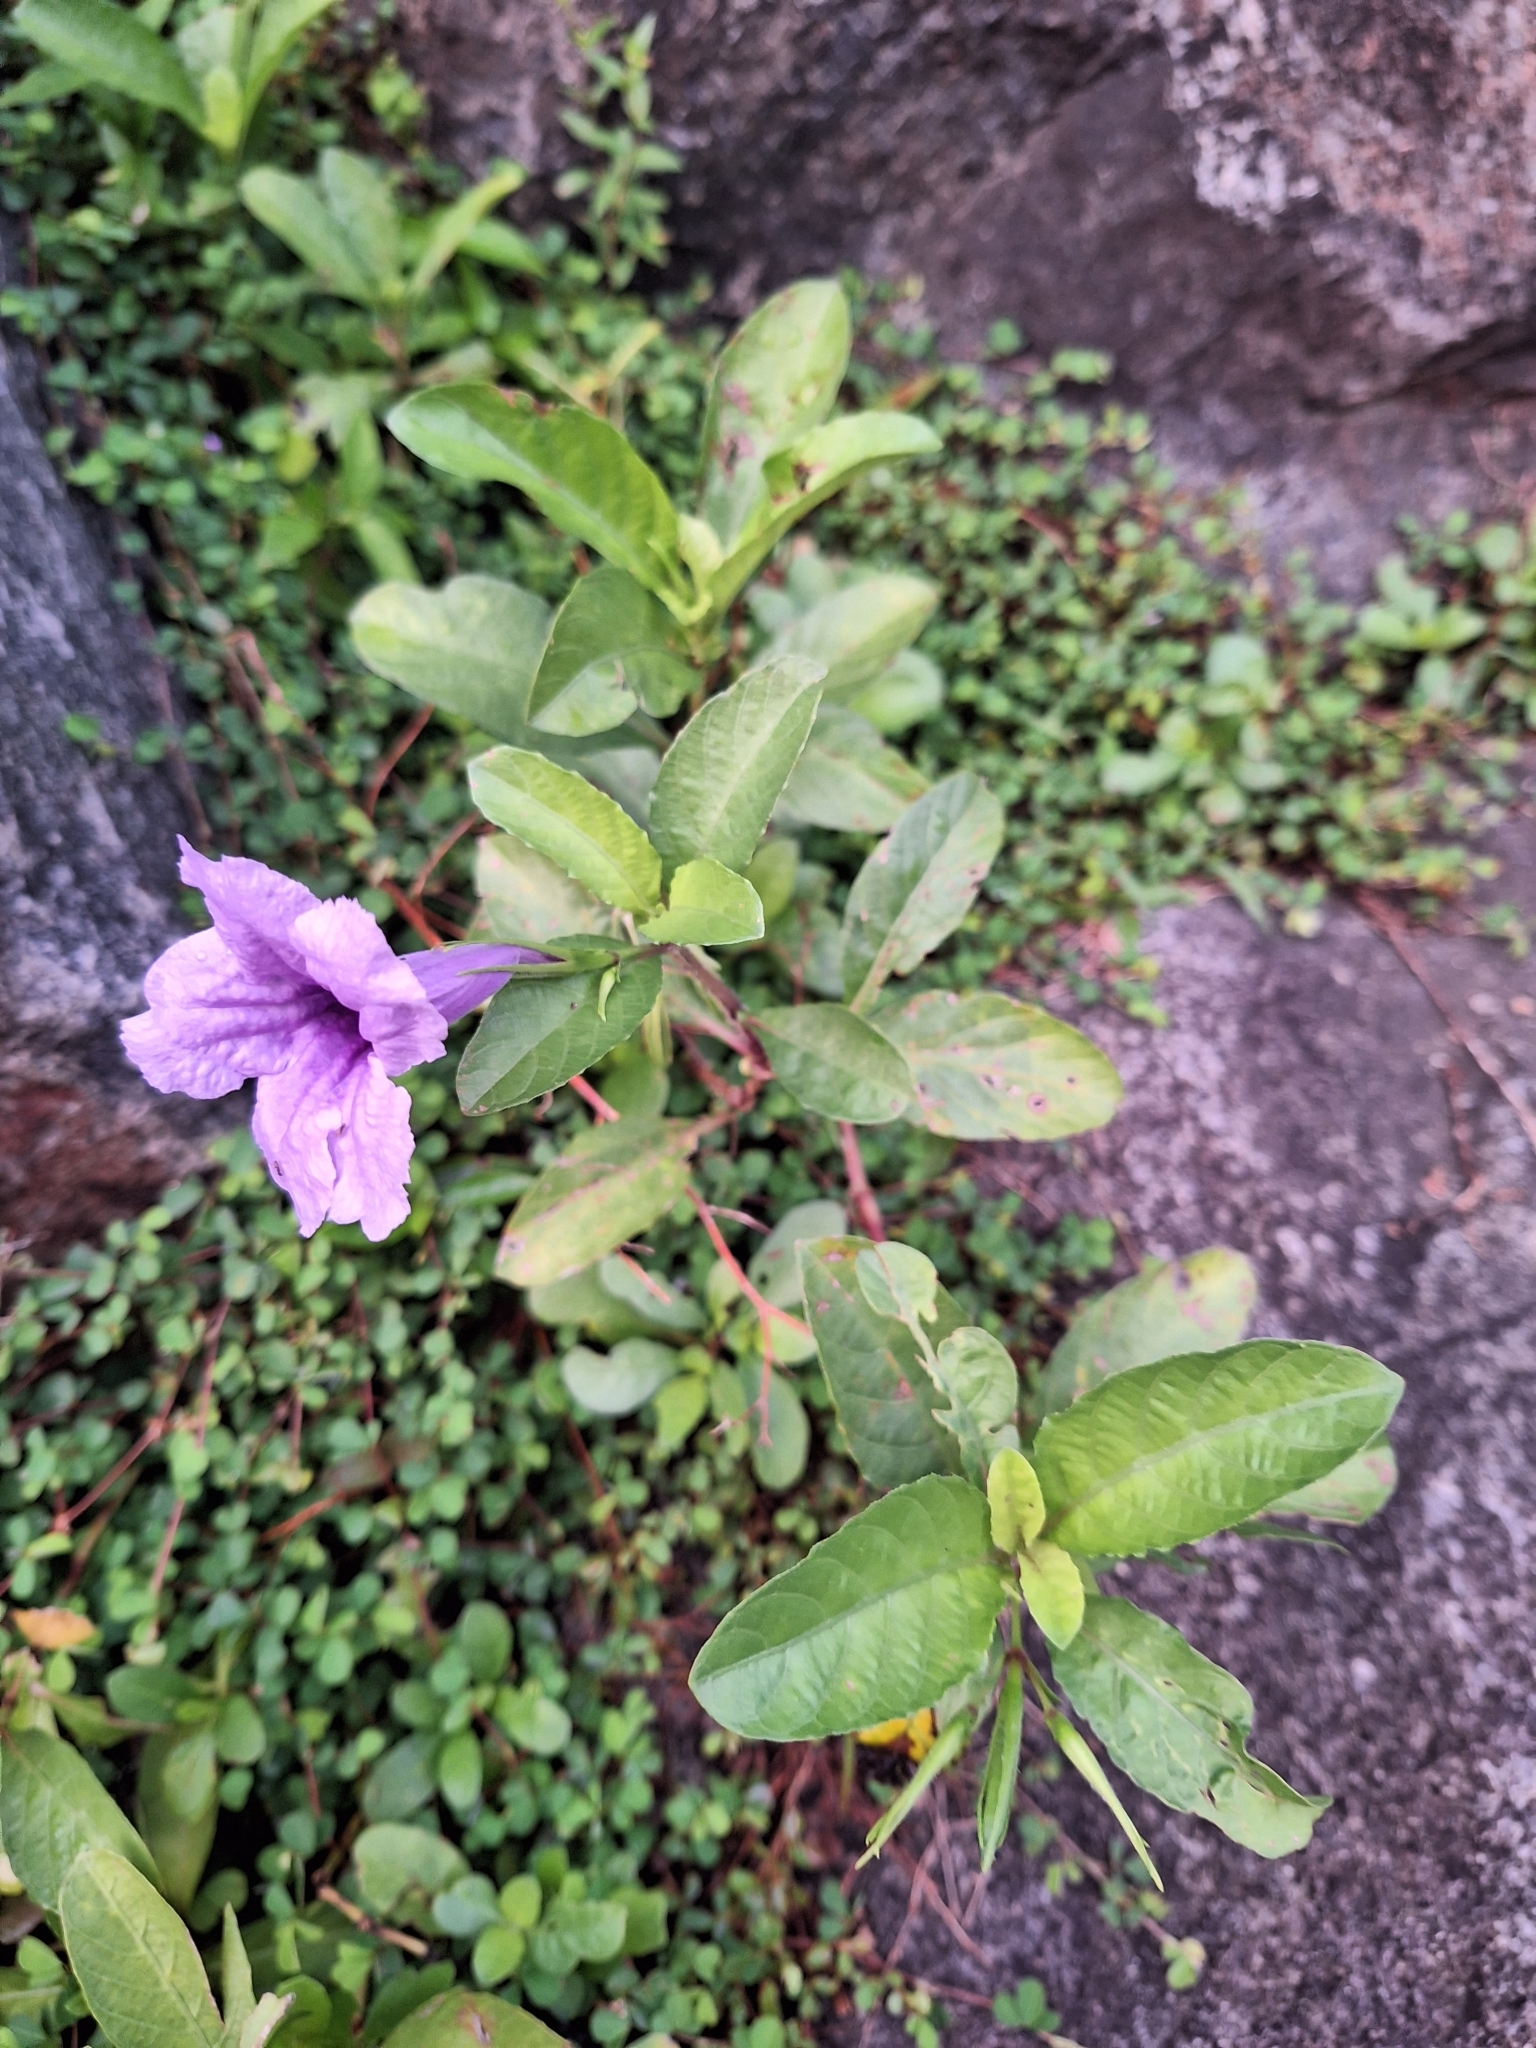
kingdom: Plantae
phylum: Tracheophyta
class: Magnoliopsida
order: Lamiales
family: Acanthaceae
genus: Ruellia
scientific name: Ruellia tuberosa
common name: Devil's bit
